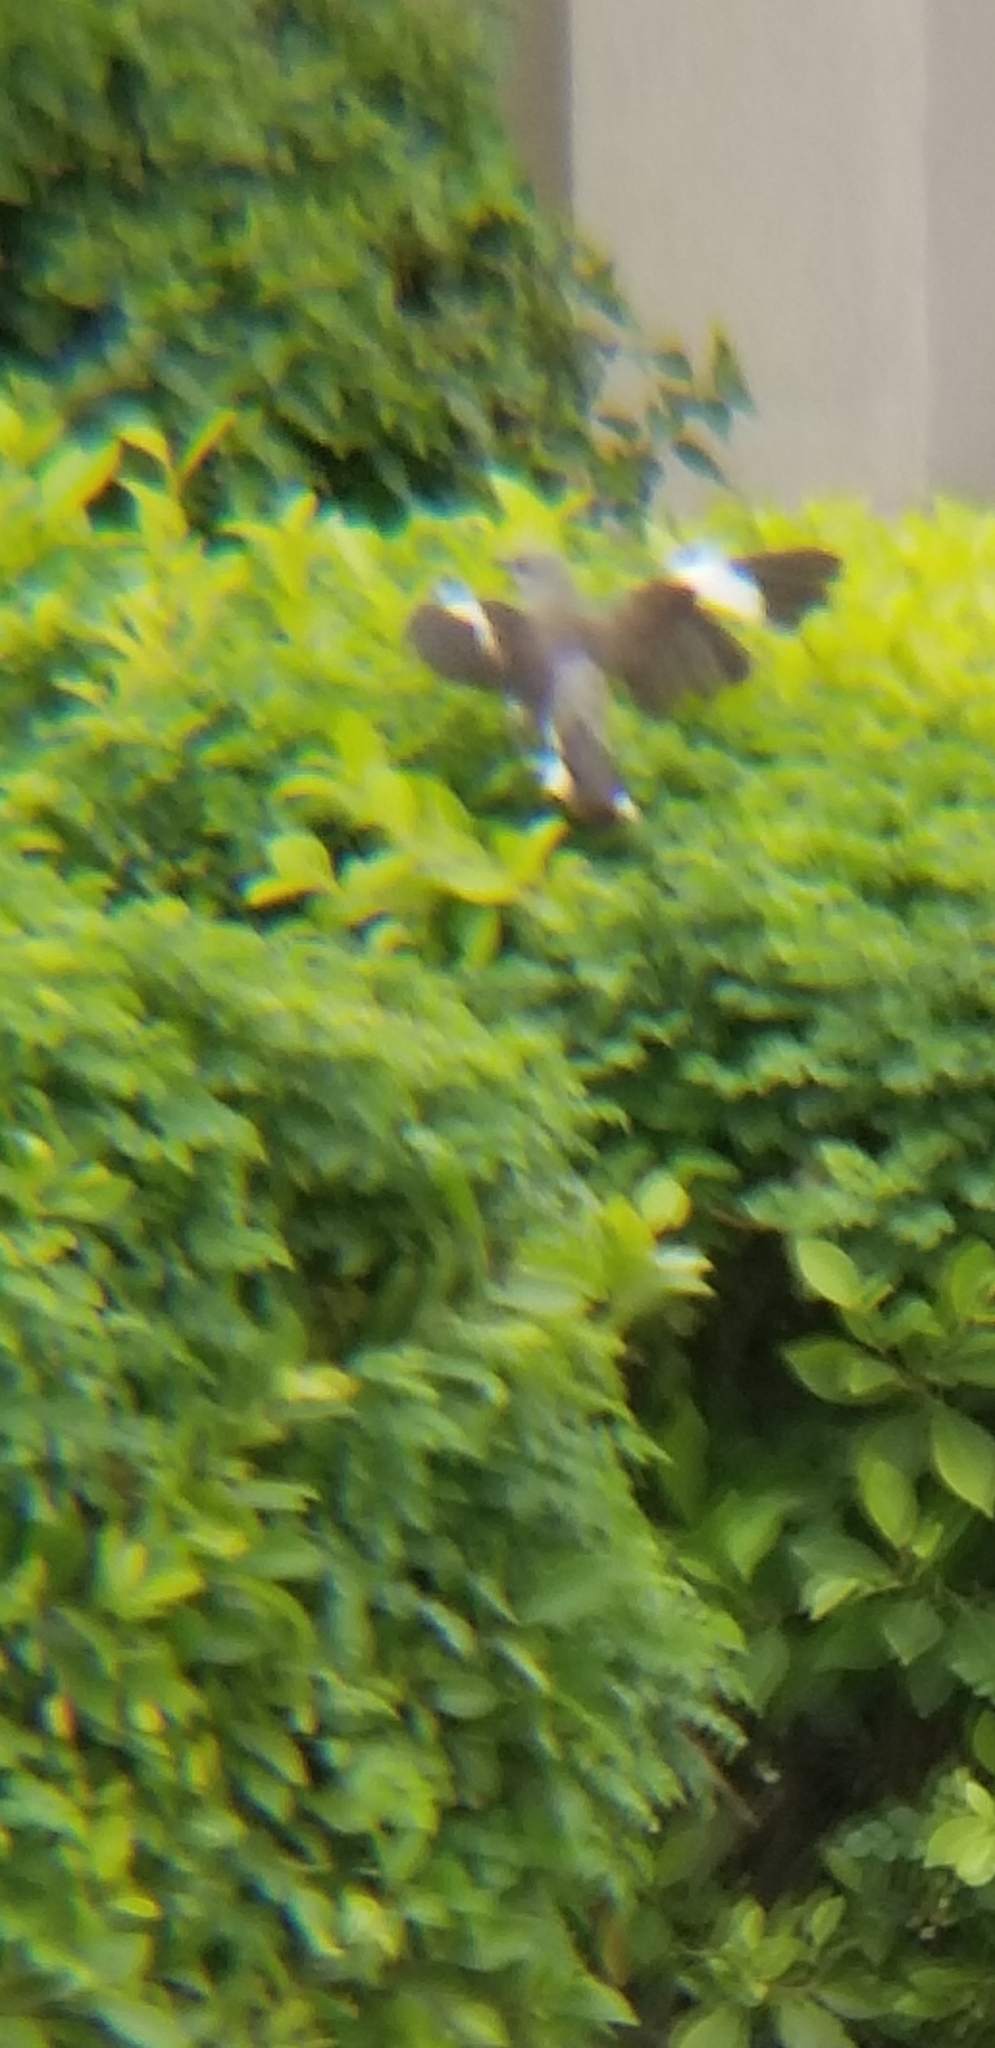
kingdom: Animalia
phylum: Chordata
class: Aves
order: Passeriformes
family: Mimidae
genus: Mimus
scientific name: Mimus polyglottos
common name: Northern mockingbird
